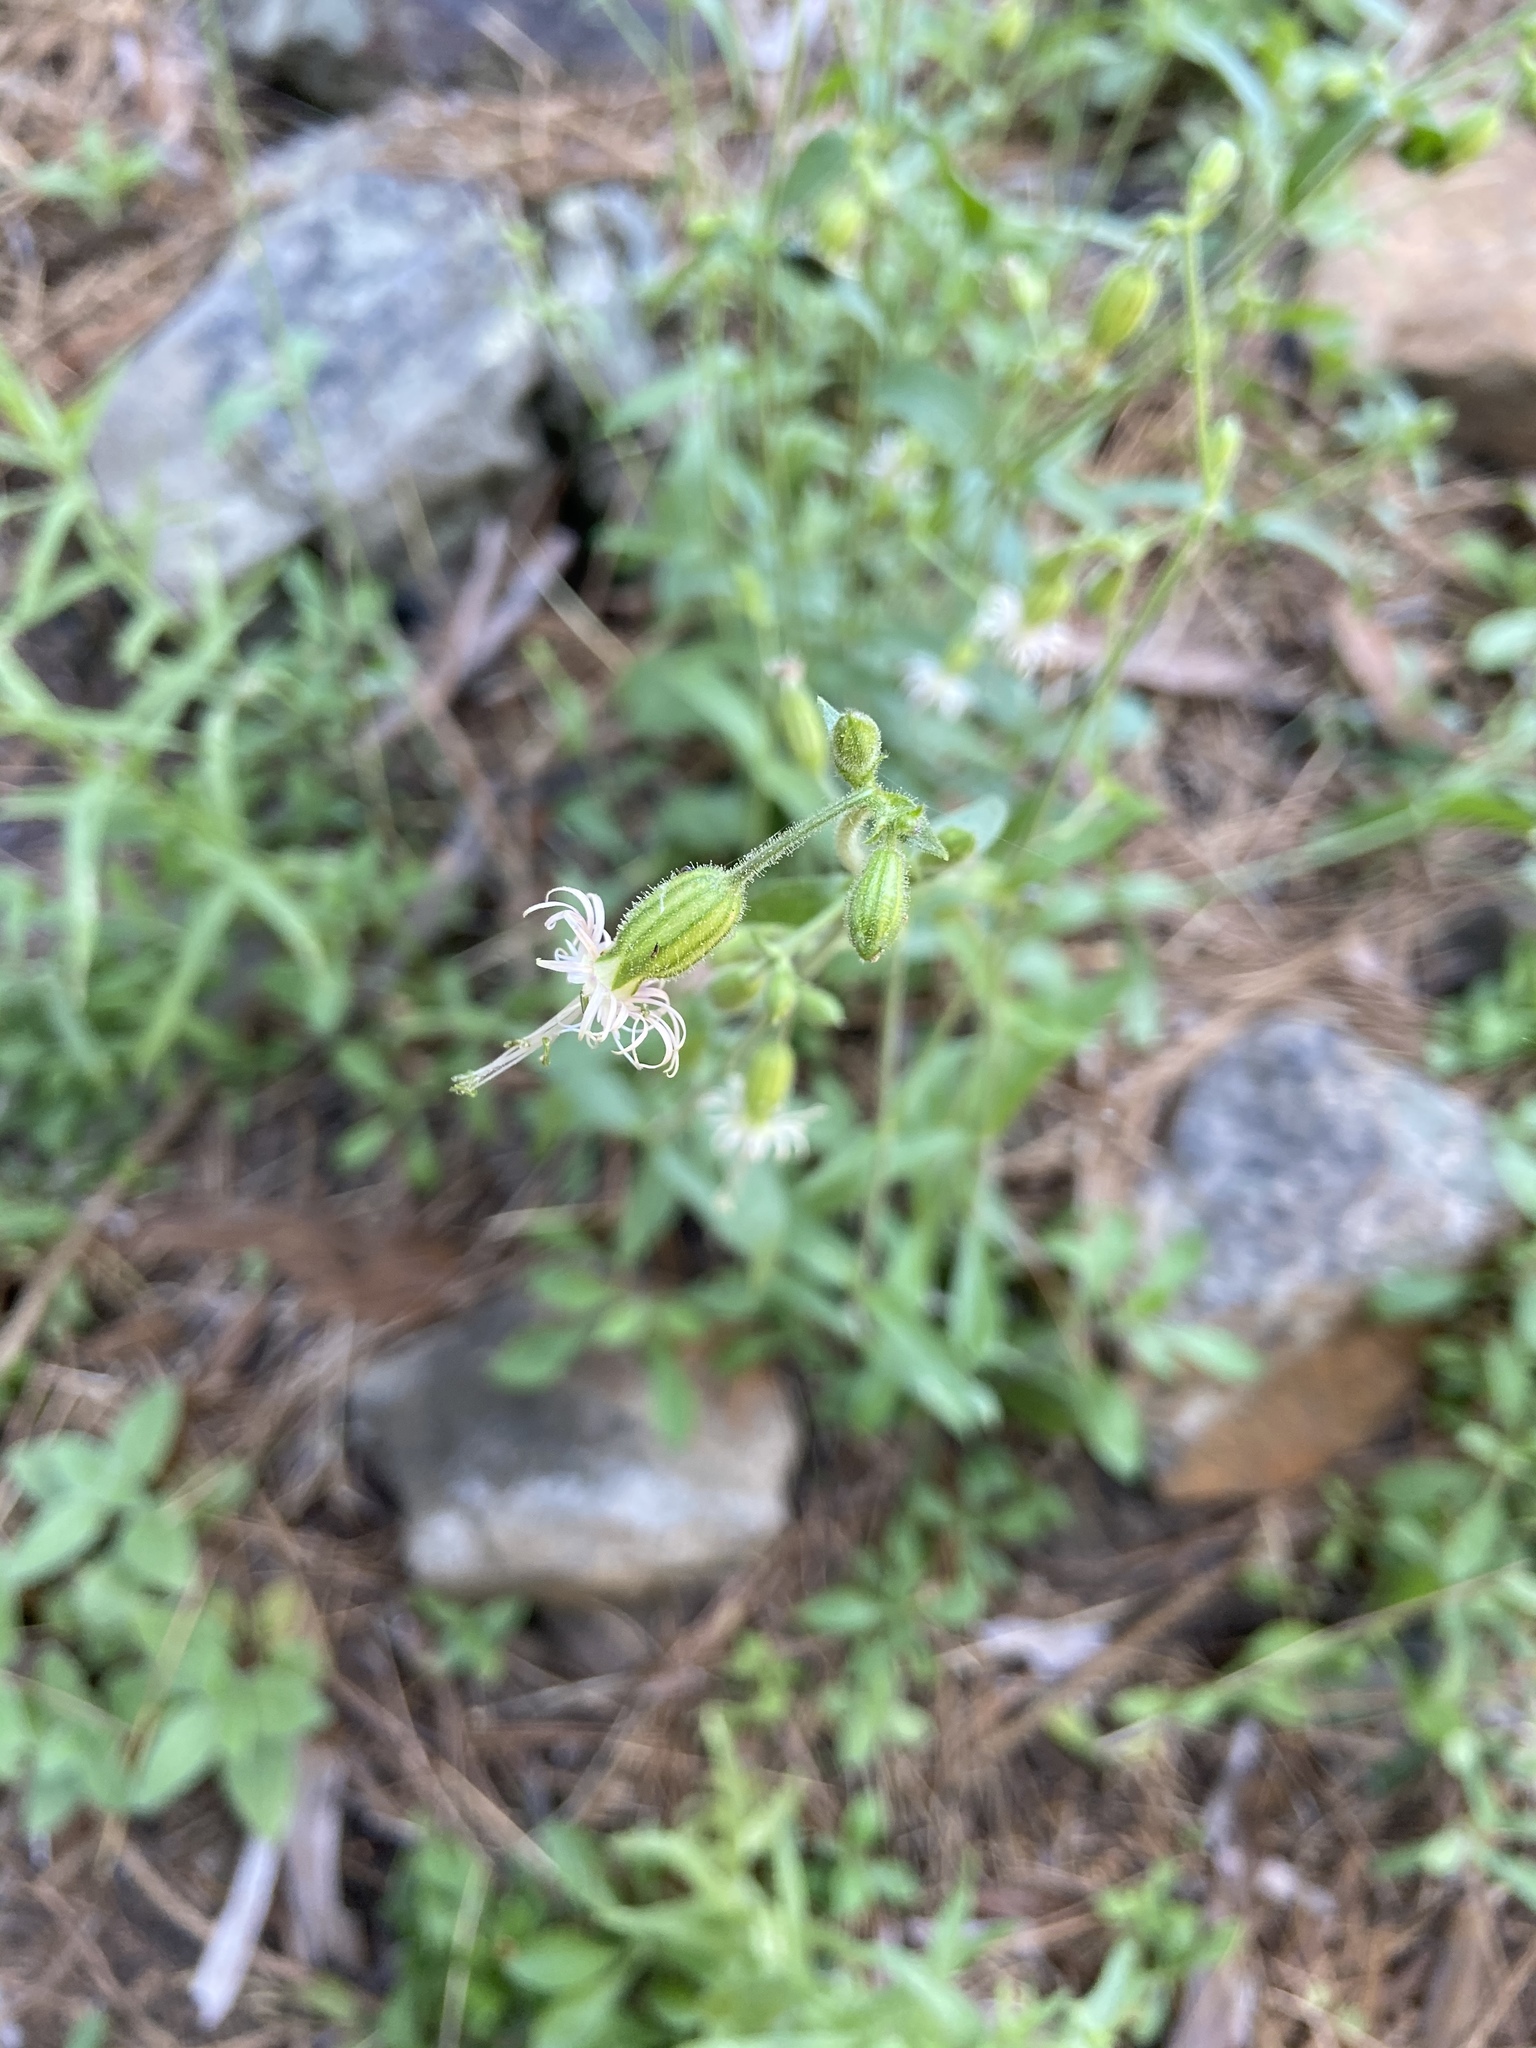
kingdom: Plantae
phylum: Tracheophyta
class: Magnoliopsida
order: Caryophyllales
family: Caryophyllaceae
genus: Silene
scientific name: Silene lemmonii
